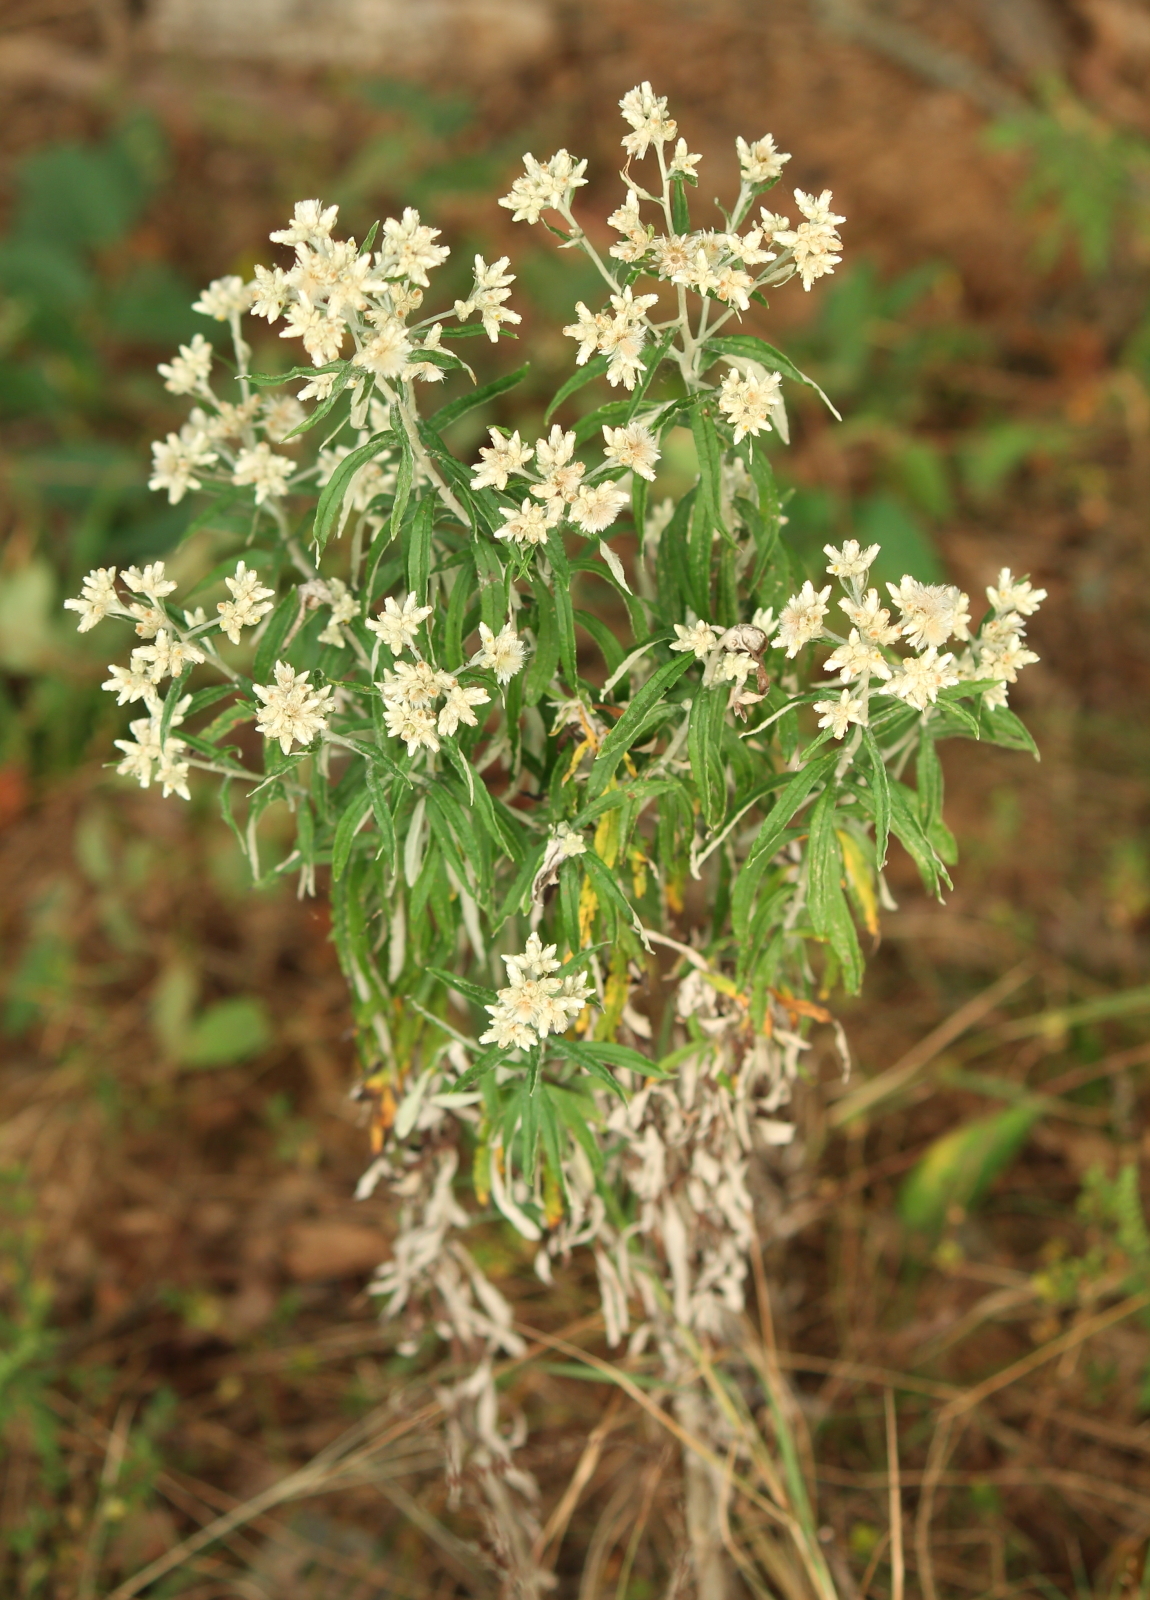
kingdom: Plantae
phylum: Tracheophyta
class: Magnoliopsida
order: Asterales
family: Asteraceae
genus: Pseudognaphalium
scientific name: Pseudognaphalium obtusifolium
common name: Eastern rabbit-tobacco
